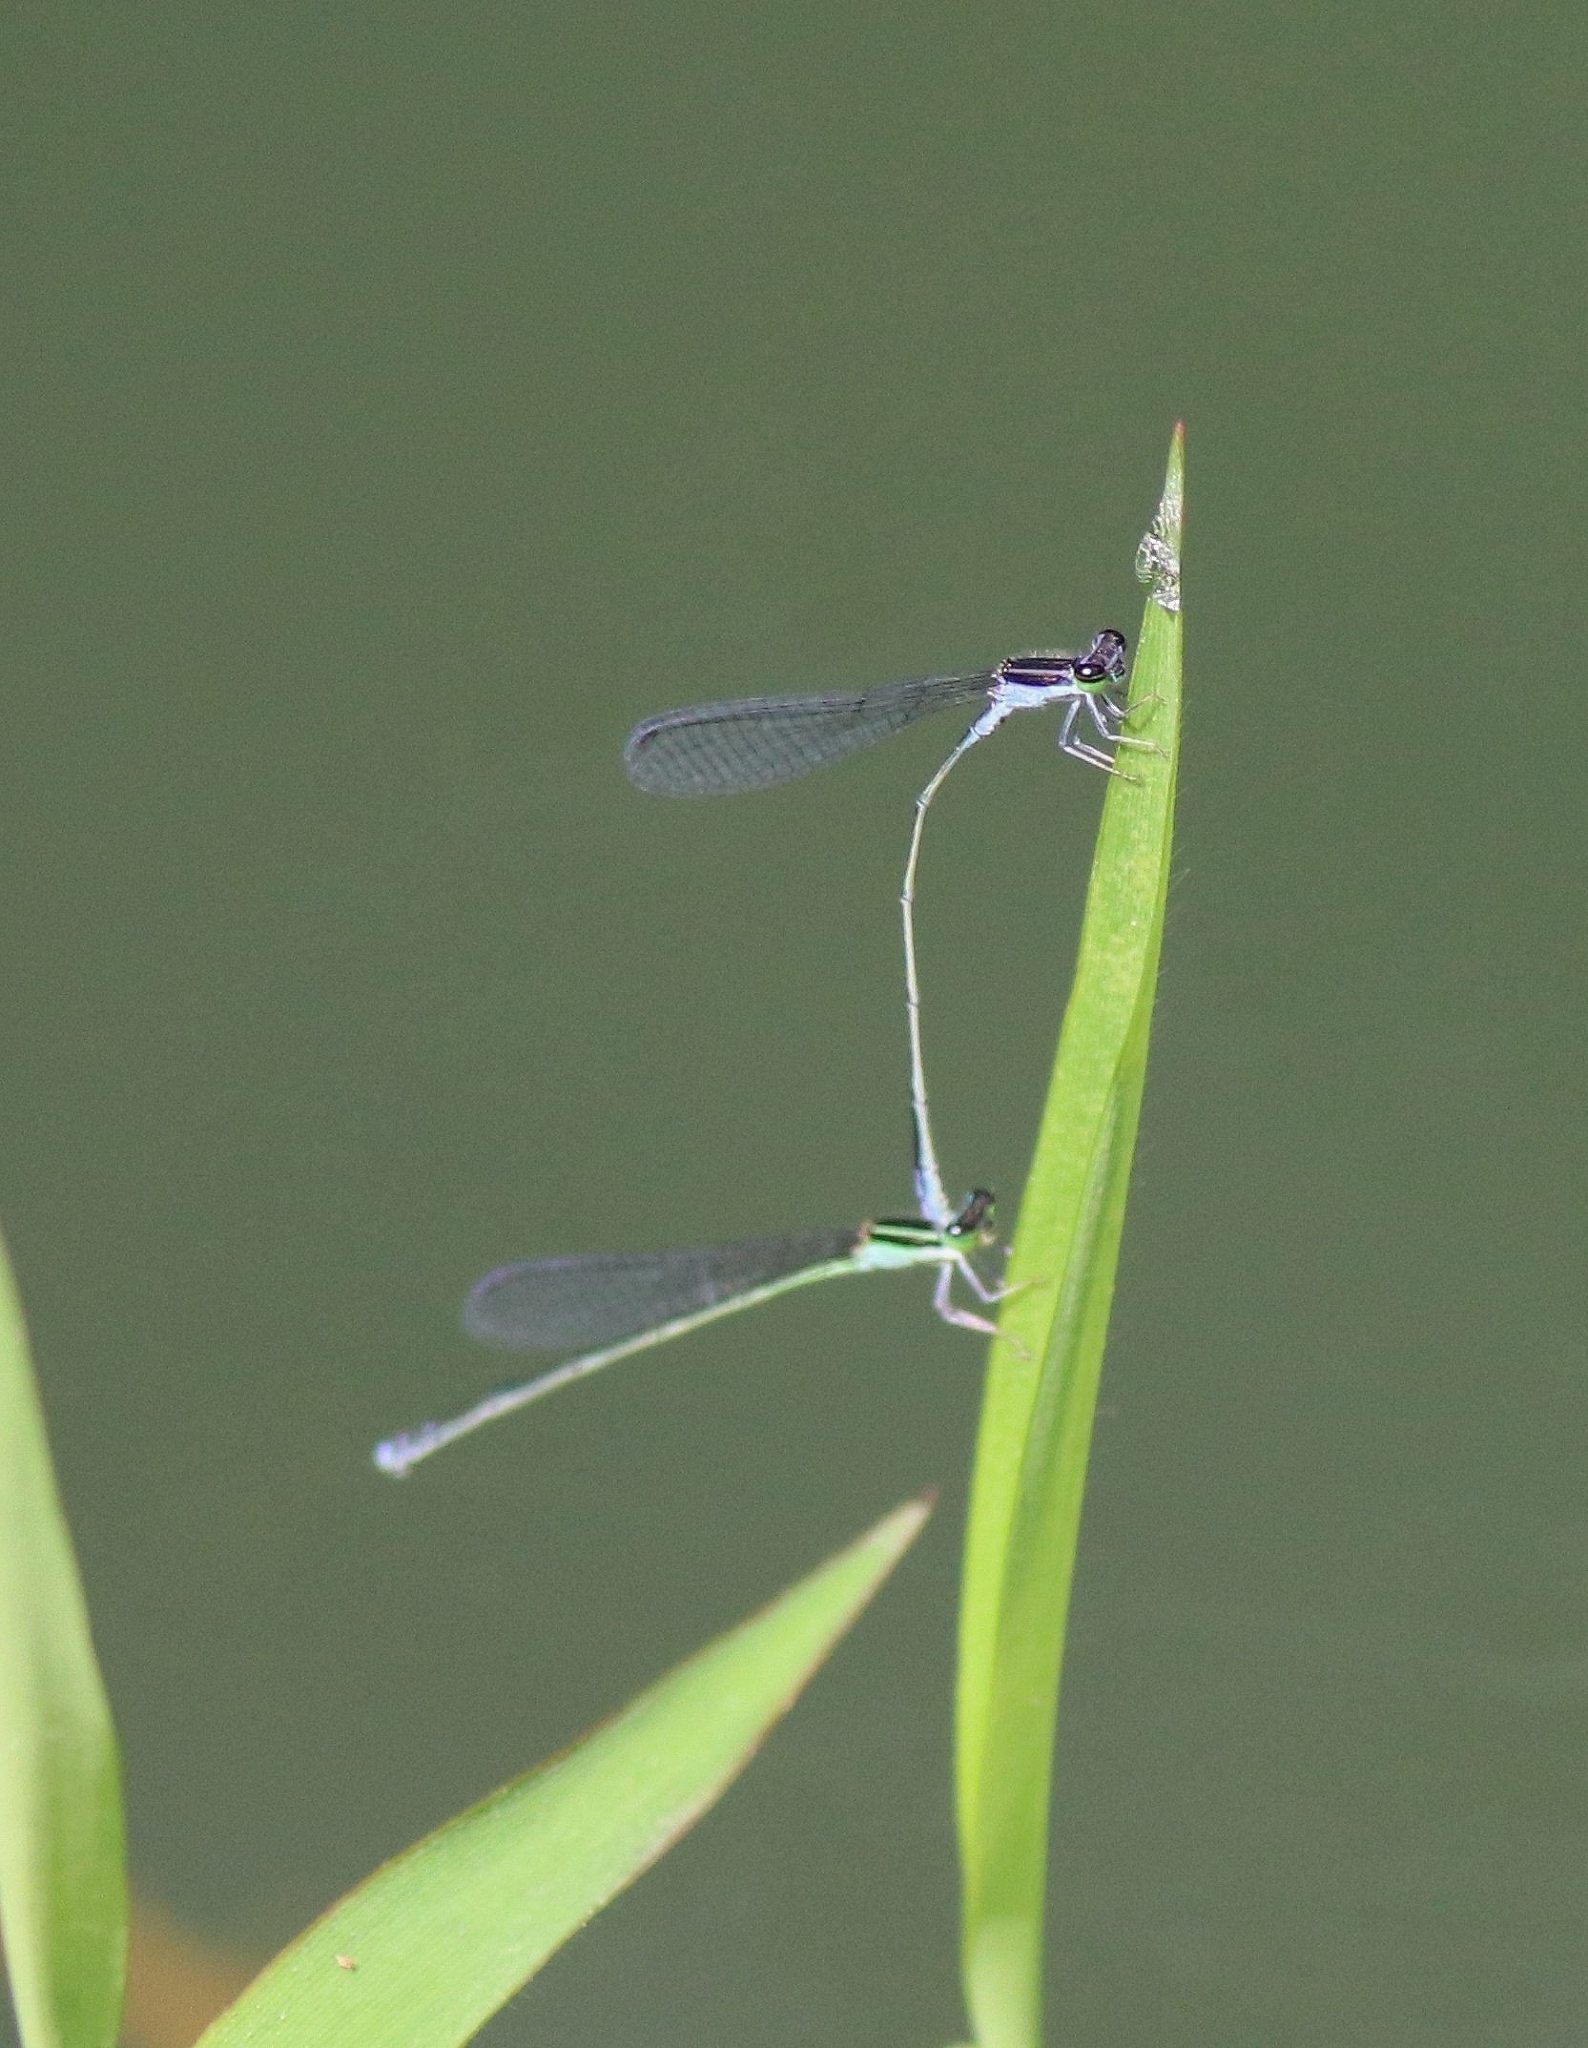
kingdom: Animalia
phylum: Arthropoda
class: Insecta
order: Odonata
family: Coenagrionidae
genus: Aciagrion
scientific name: Aciagrion approximans
